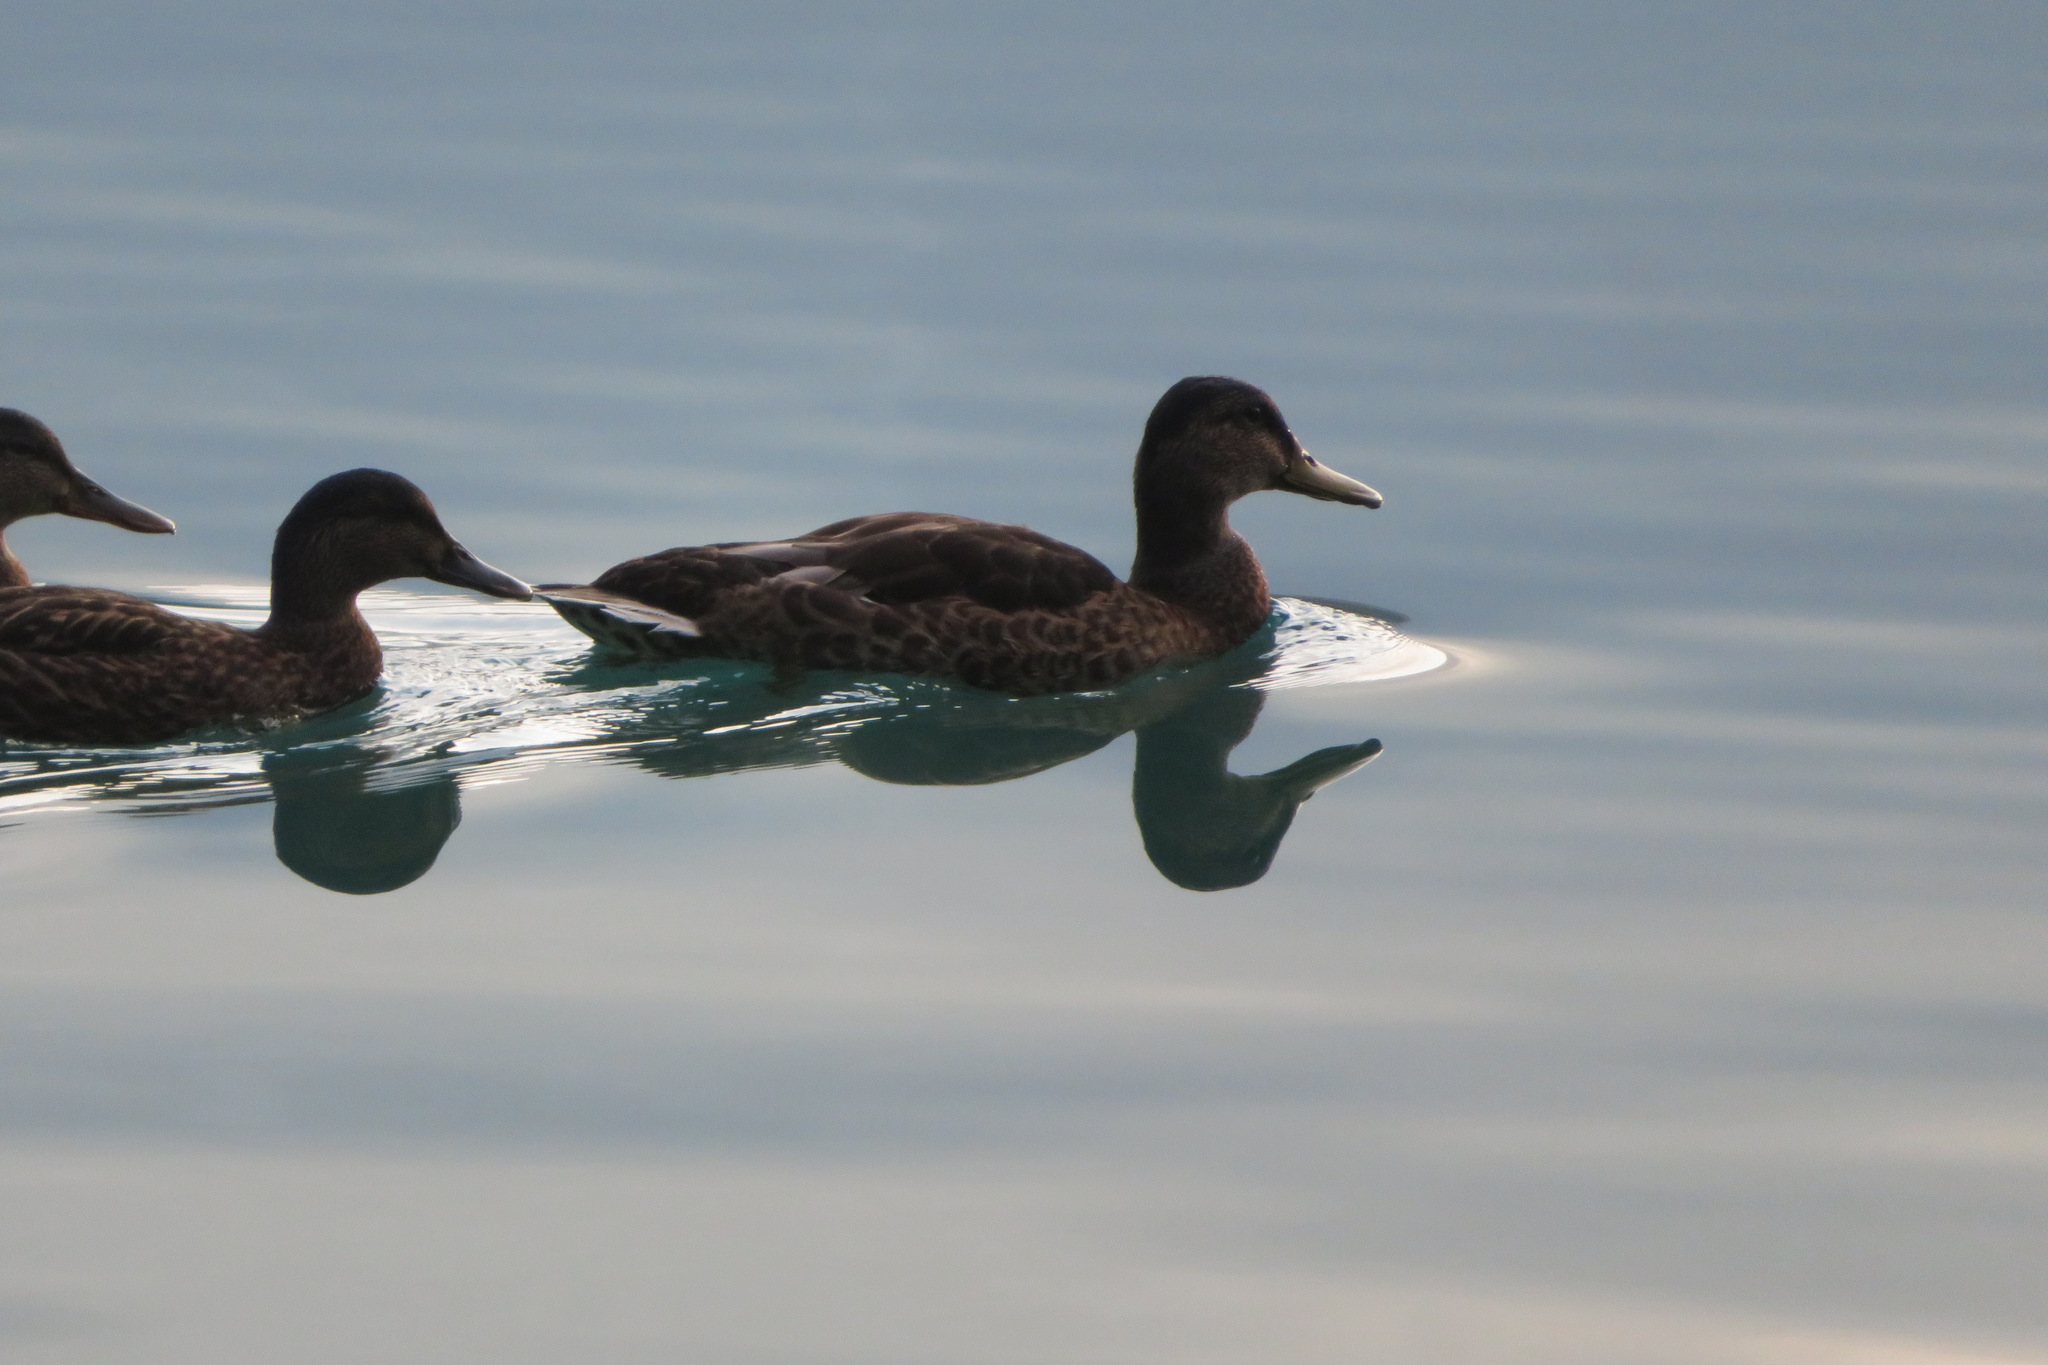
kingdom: Animalia
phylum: Chordata
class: Aves
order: Anseriformes
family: Anatidae
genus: Anas
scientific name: Anas platyrhynchos
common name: Mallard
